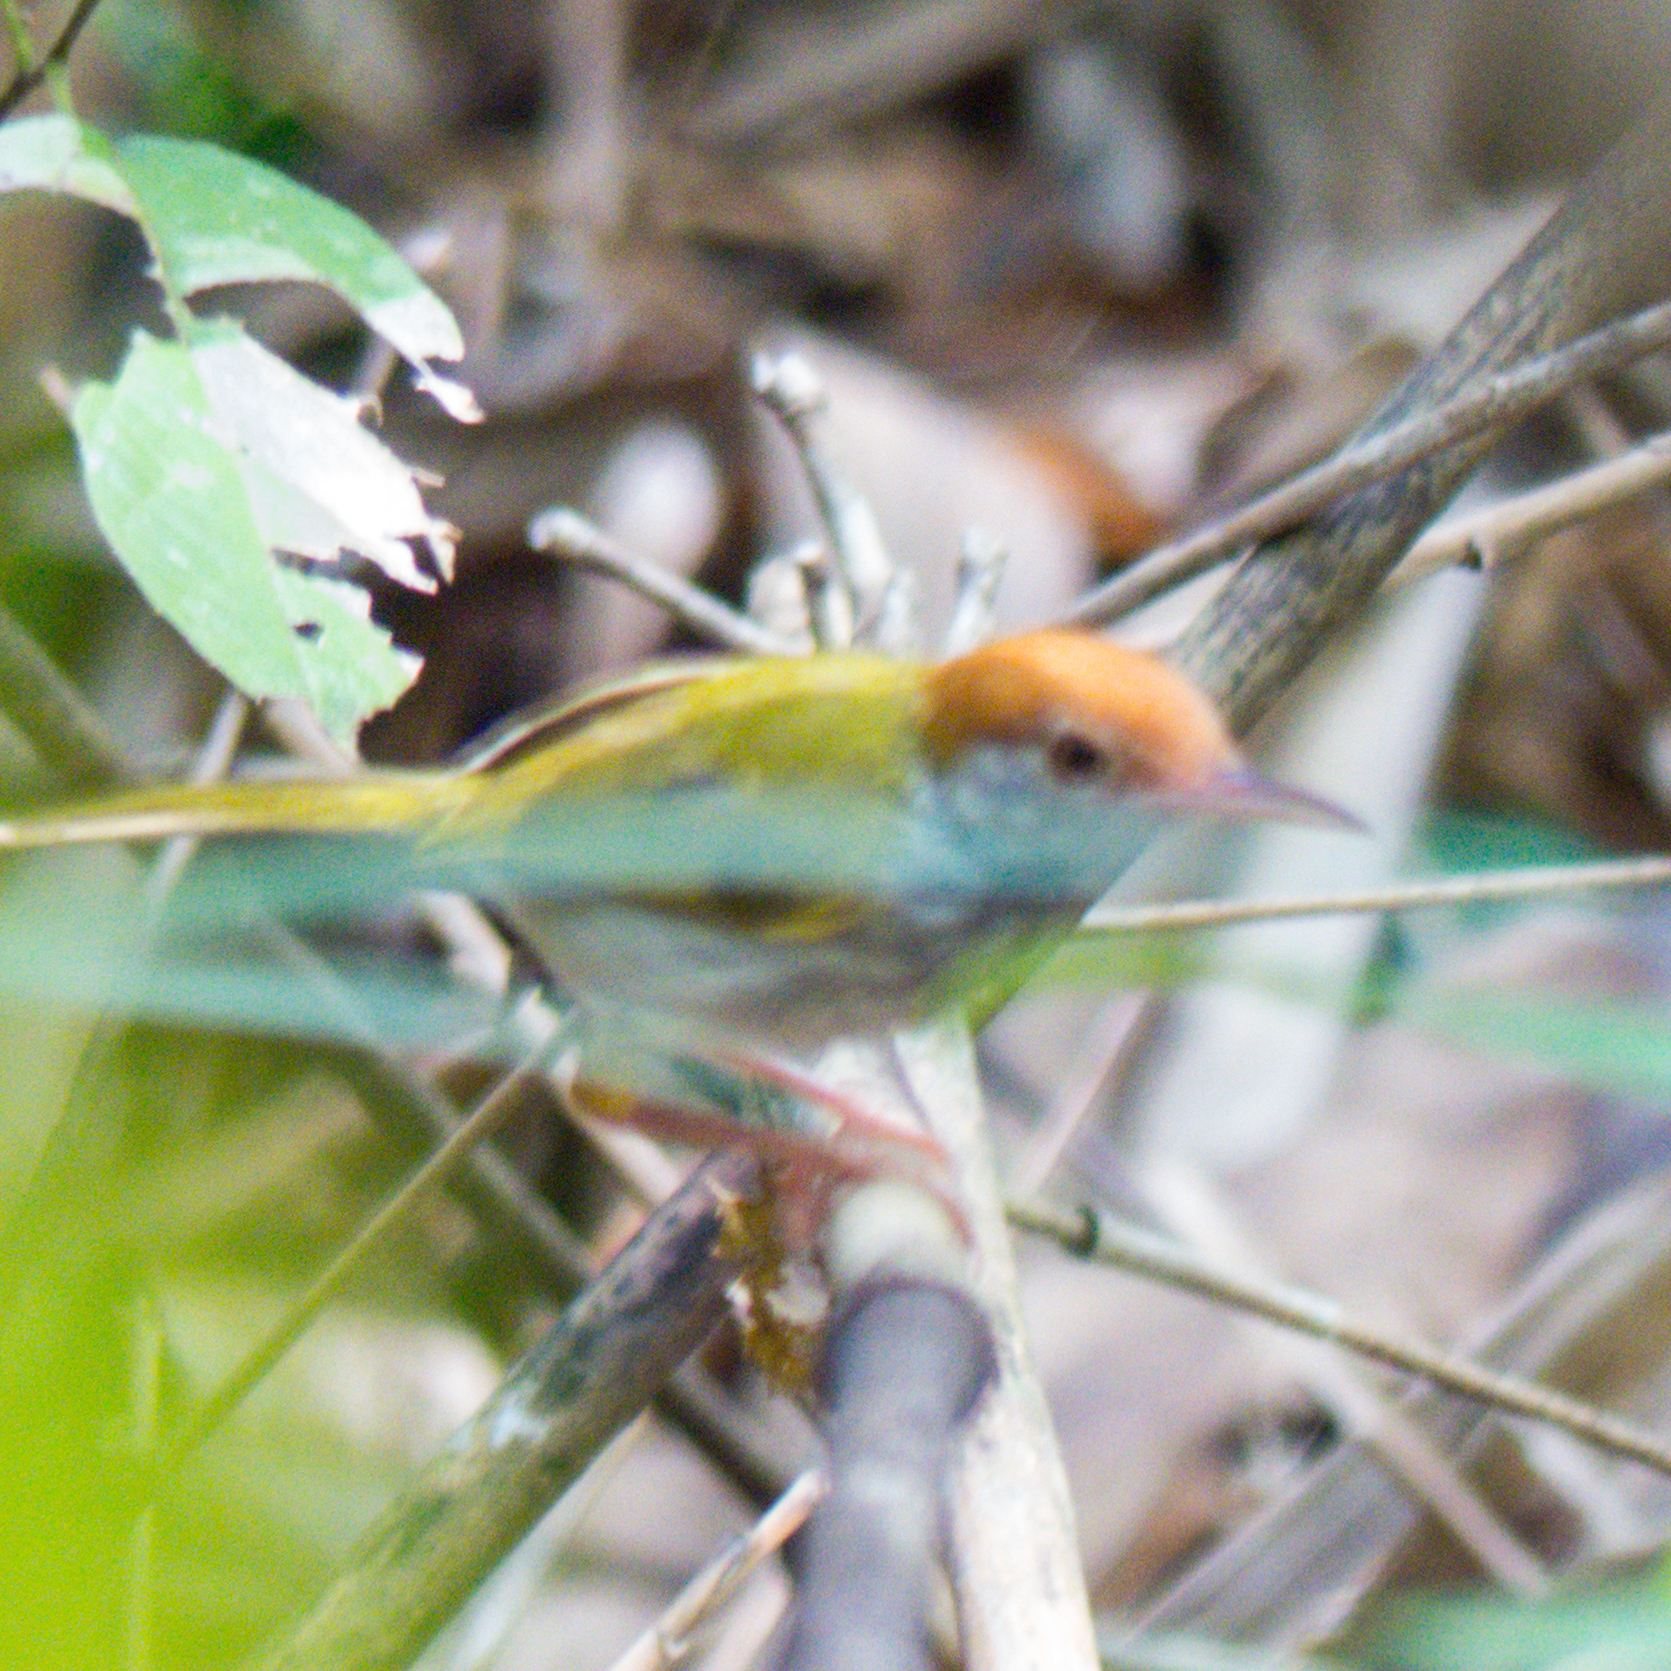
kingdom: Animalia
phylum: Chordata
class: Aves
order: Passeriformes
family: Cisticolidae
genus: Orthotomus
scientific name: Orthotomus atrogularis
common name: Dark-necked tailorbird
